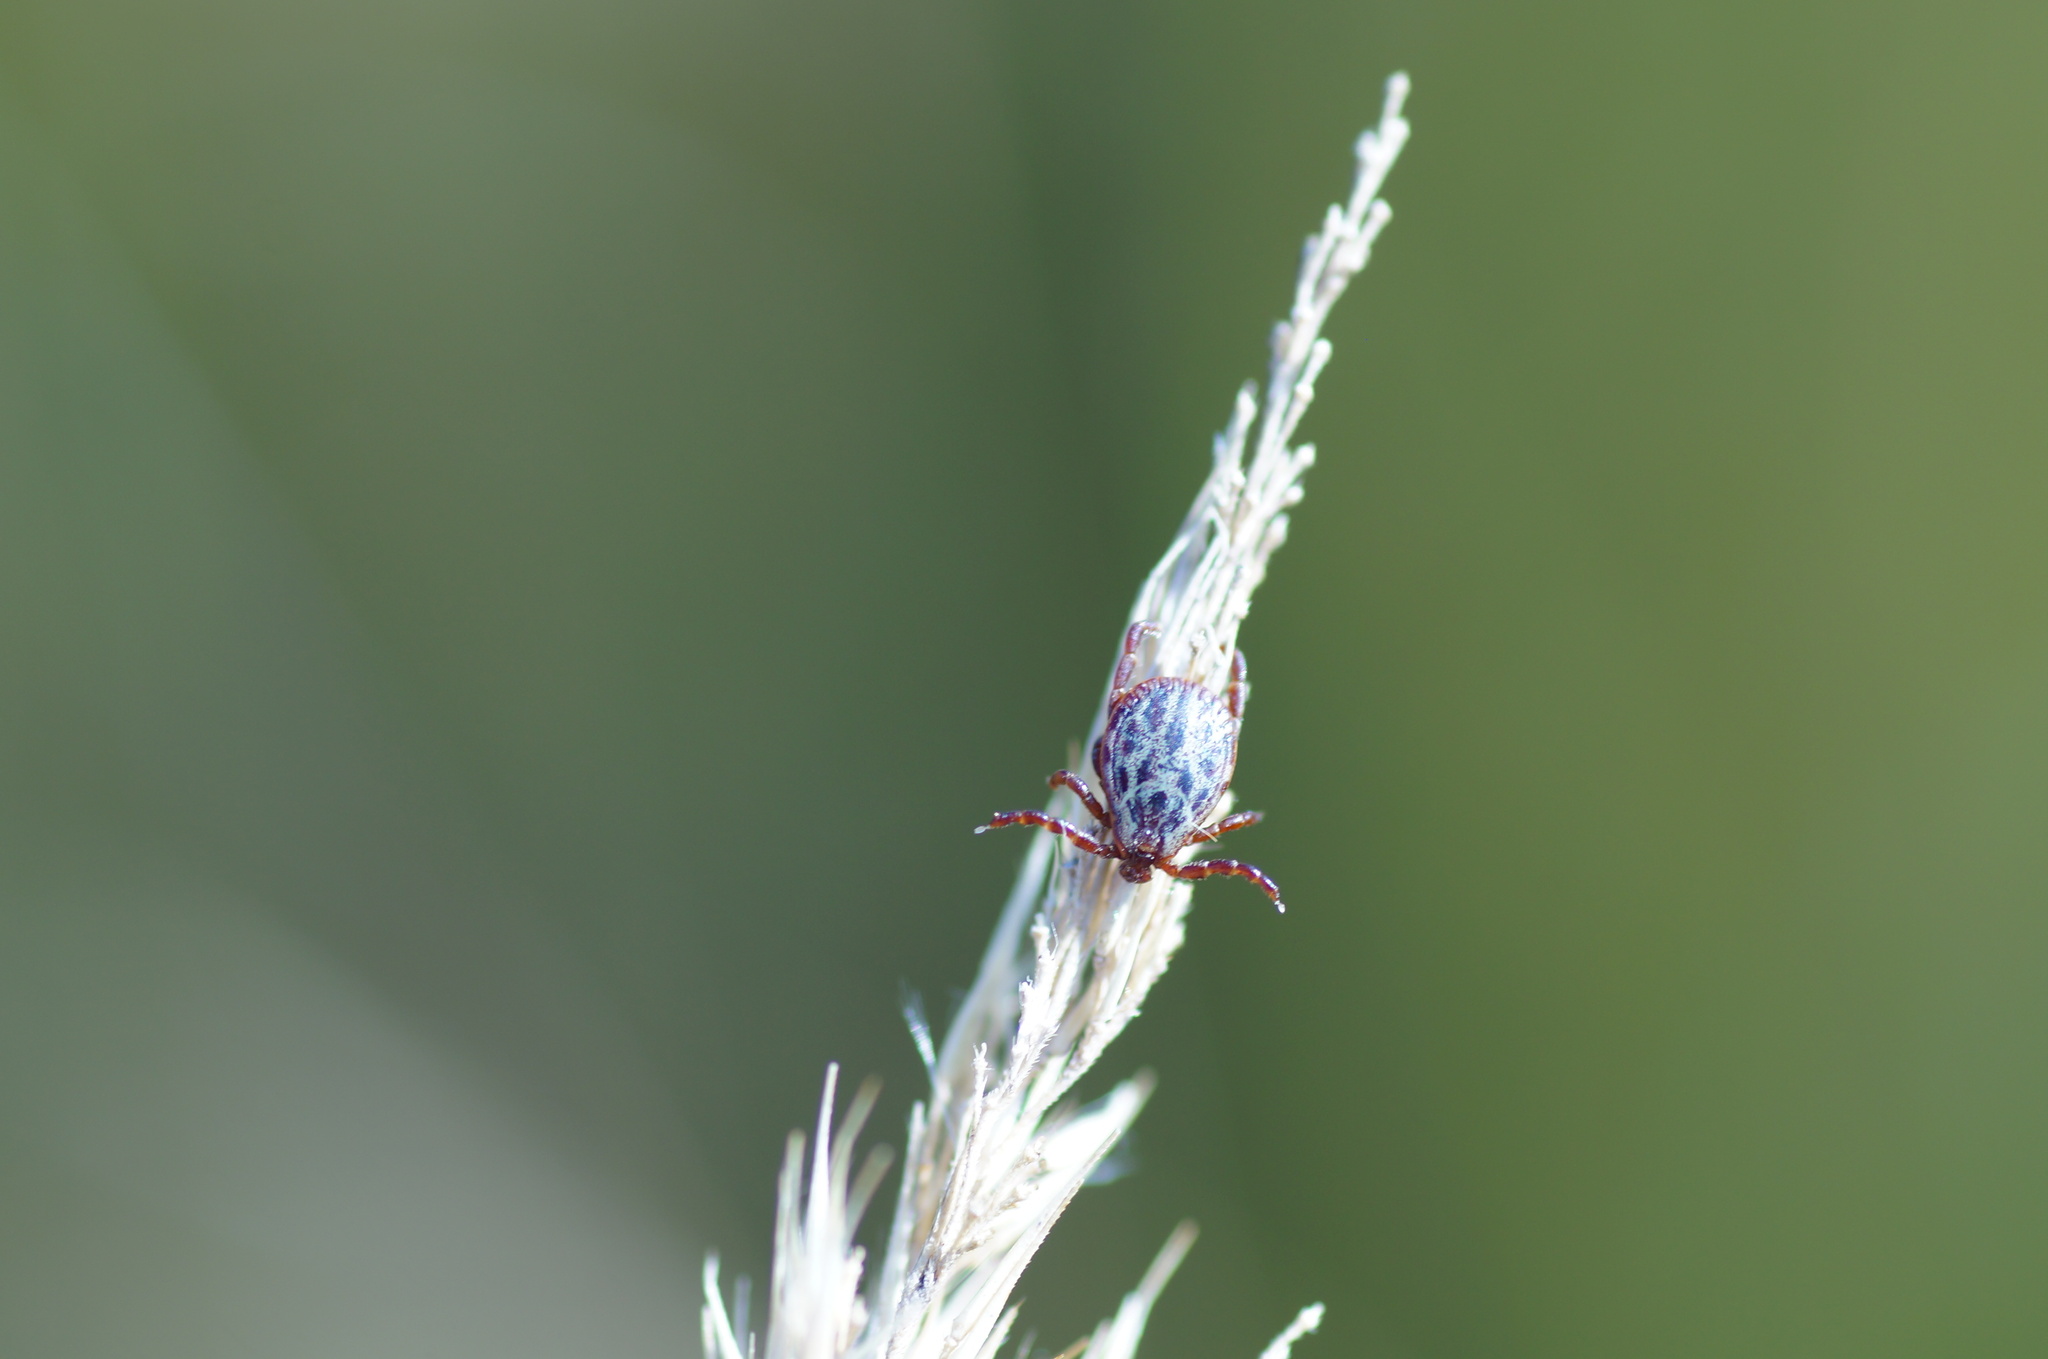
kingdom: Animalia
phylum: Arthropoda
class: Arachnida
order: Ixodida
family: Ixodidae
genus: Dermacentor
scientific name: Dermacentor reticulatus
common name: Ornate cow tick
